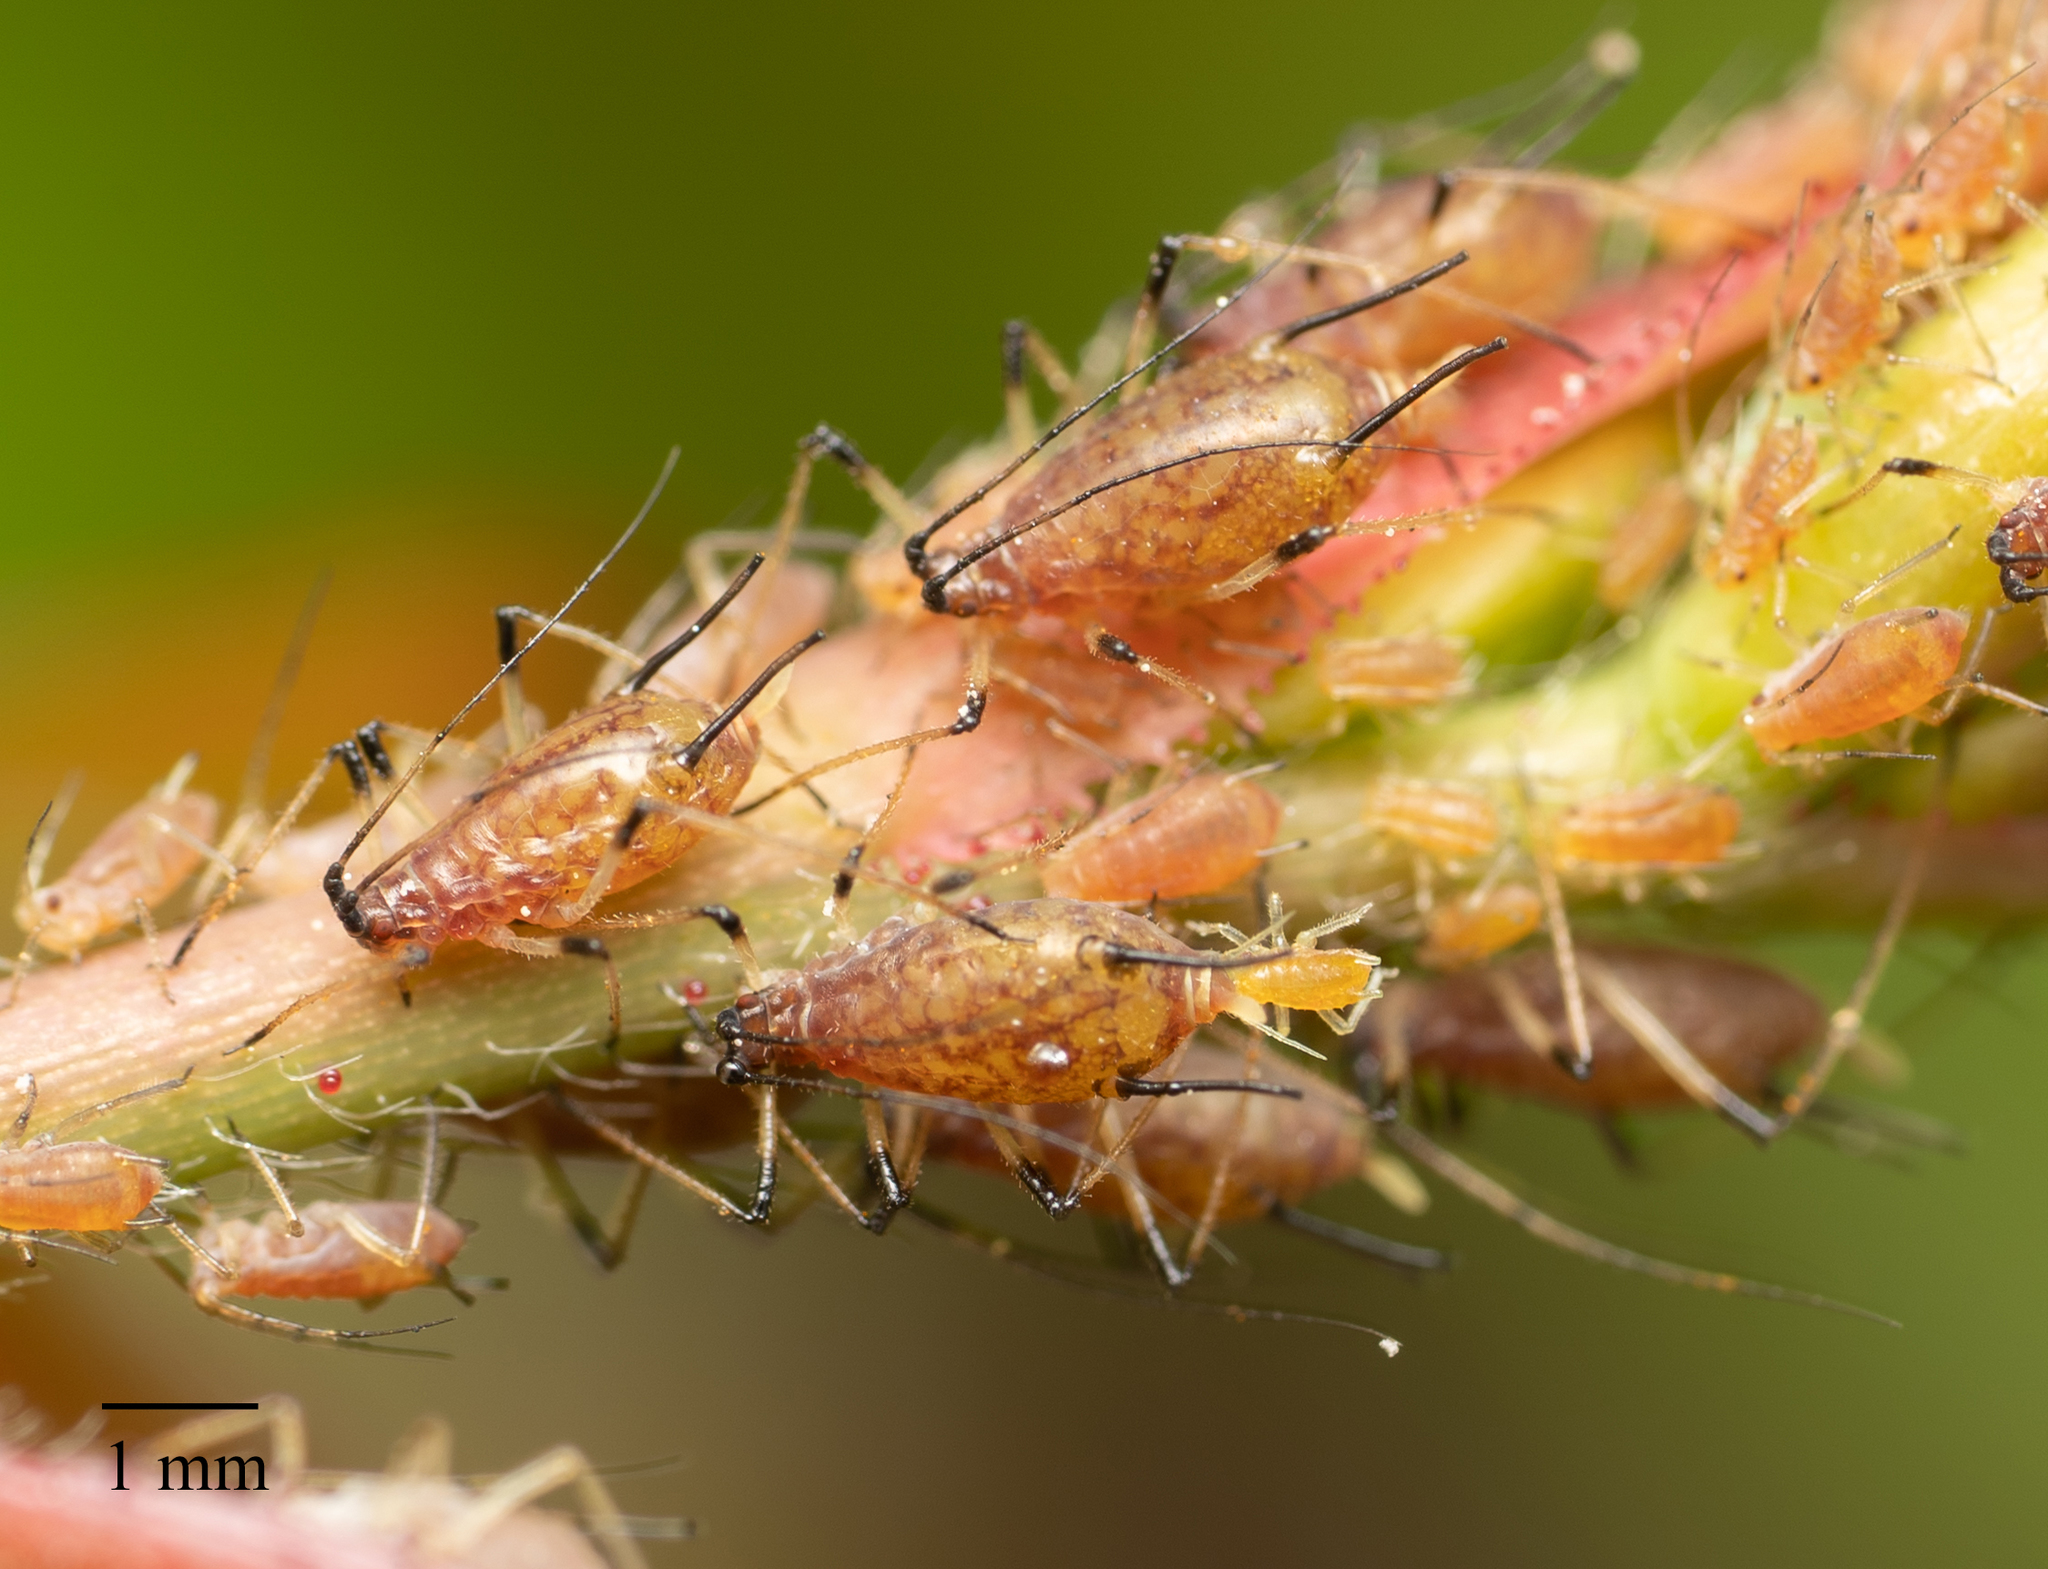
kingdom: Animalia
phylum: Arthropoda
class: Insecta
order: Hemiptera
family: Aphididae
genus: Macrosiphum
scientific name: Macrosiphum rosae
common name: Rose aphid
